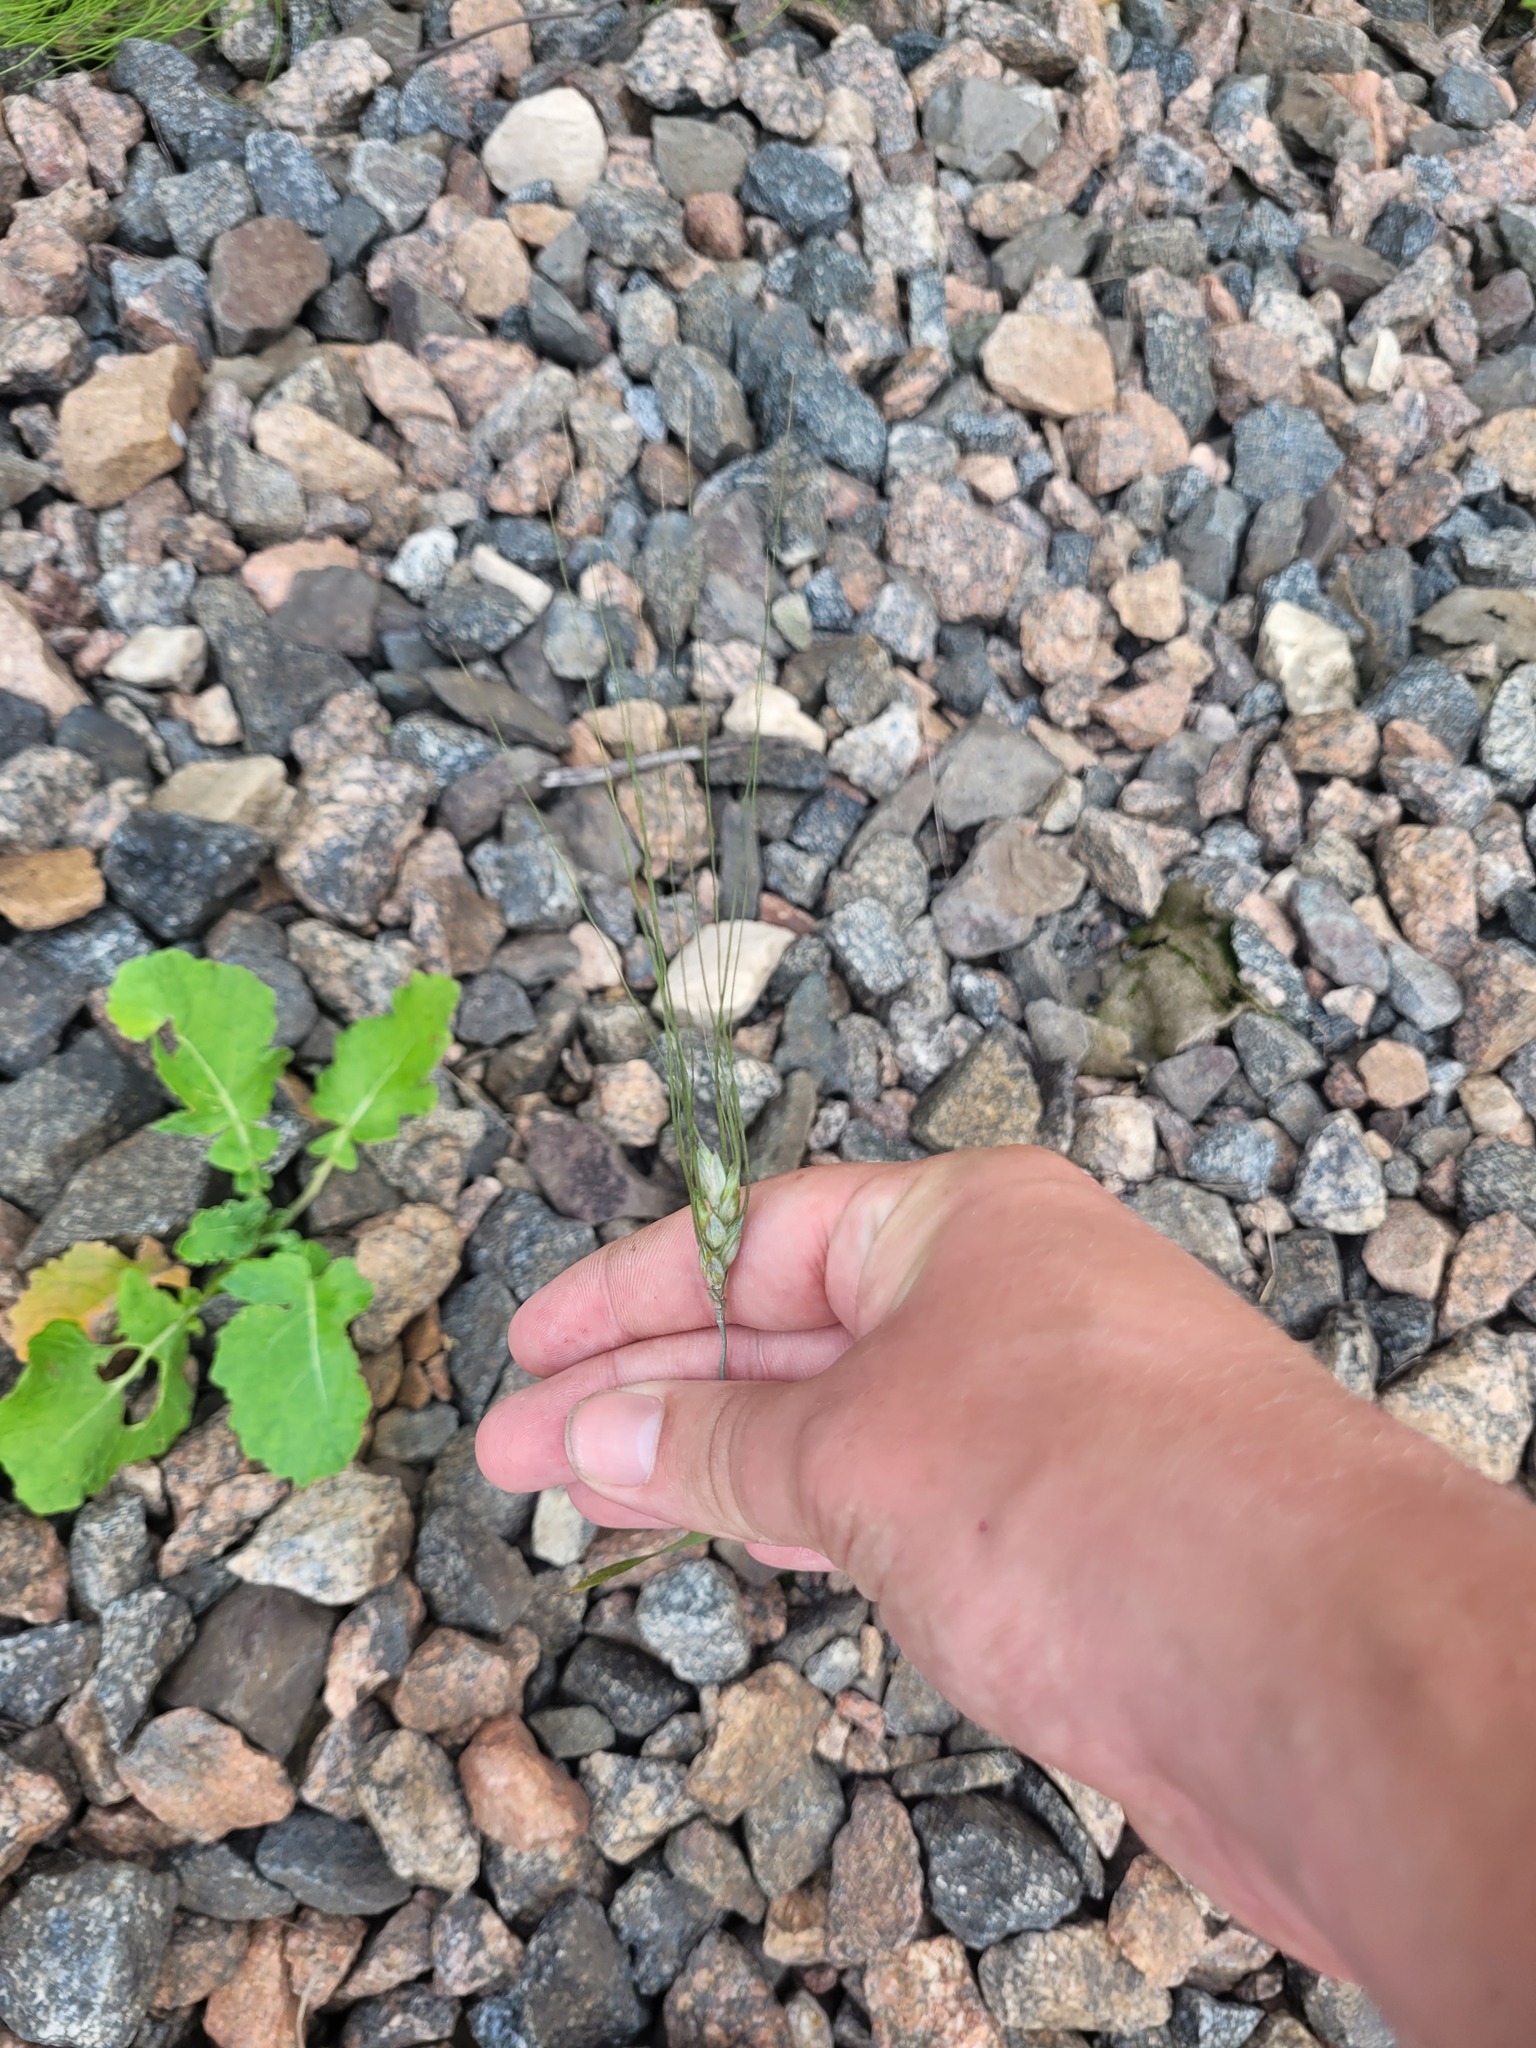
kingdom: Plantae
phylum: Tracheophyta
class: Liliopsida
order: Poales
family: Poaceae
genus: Triticum
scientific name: Triticum aestivum
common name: Common wheat
